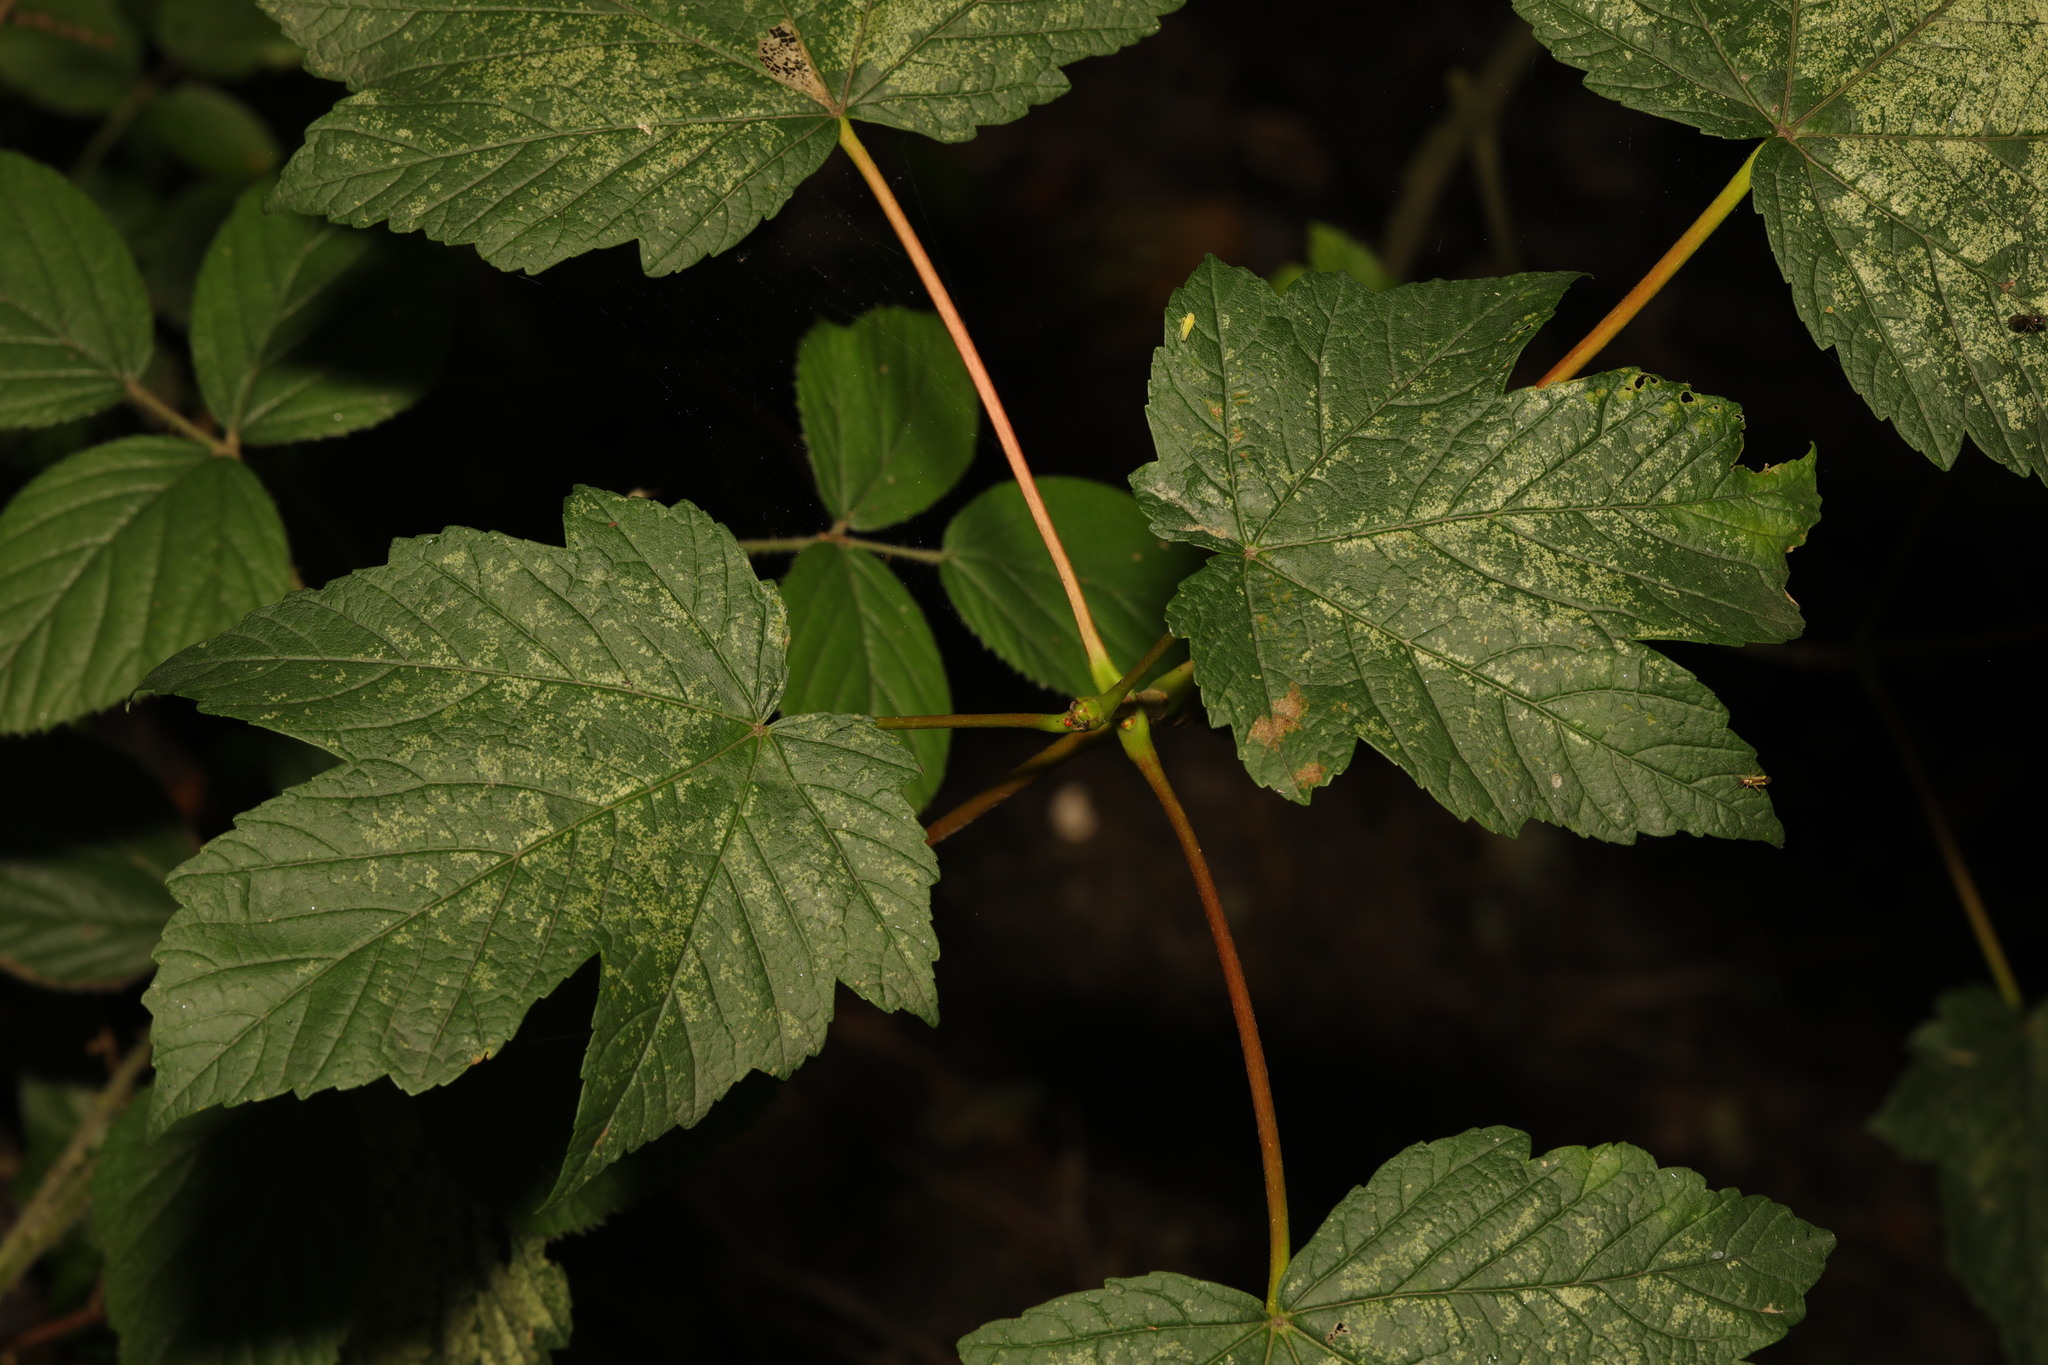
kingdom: Plantae
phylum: Tracheophyta
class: Magnoliopsida
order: Sapindales
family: Sapindaceae
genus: Acer
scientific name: Acer pseudoplatanus
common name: Sycamore
